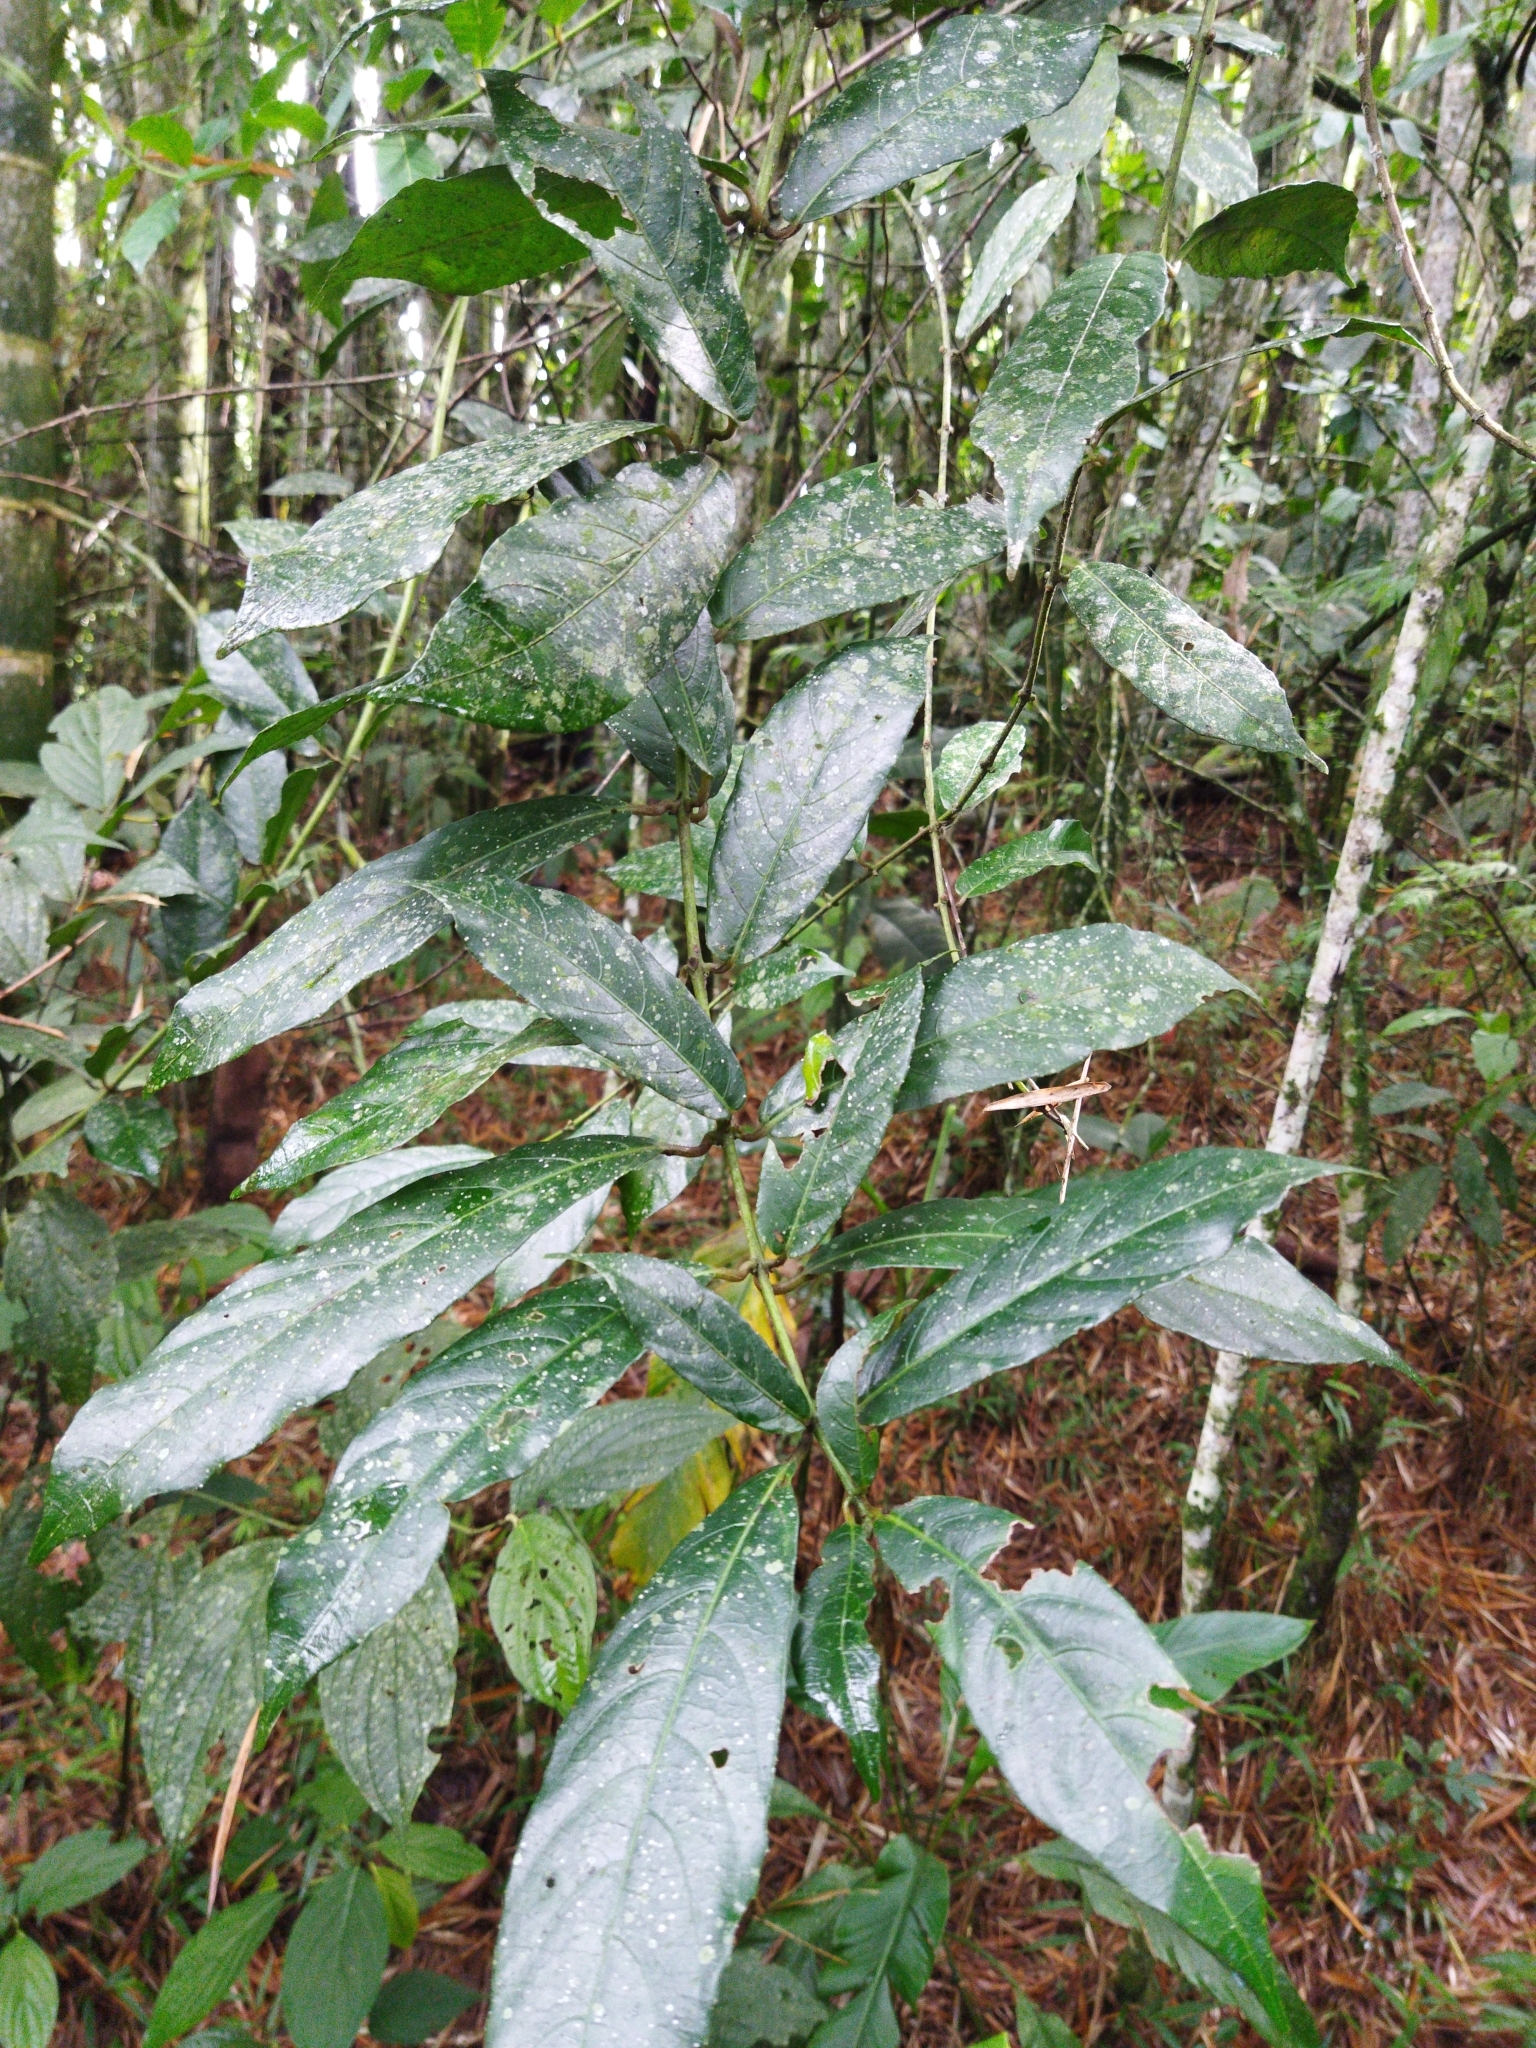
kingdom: Plantae
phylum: Tracheophyta
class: Magnoliopsida
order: Laurales
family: Siparunaceae
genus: Siparuna
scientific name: Siparuna laurifolia
